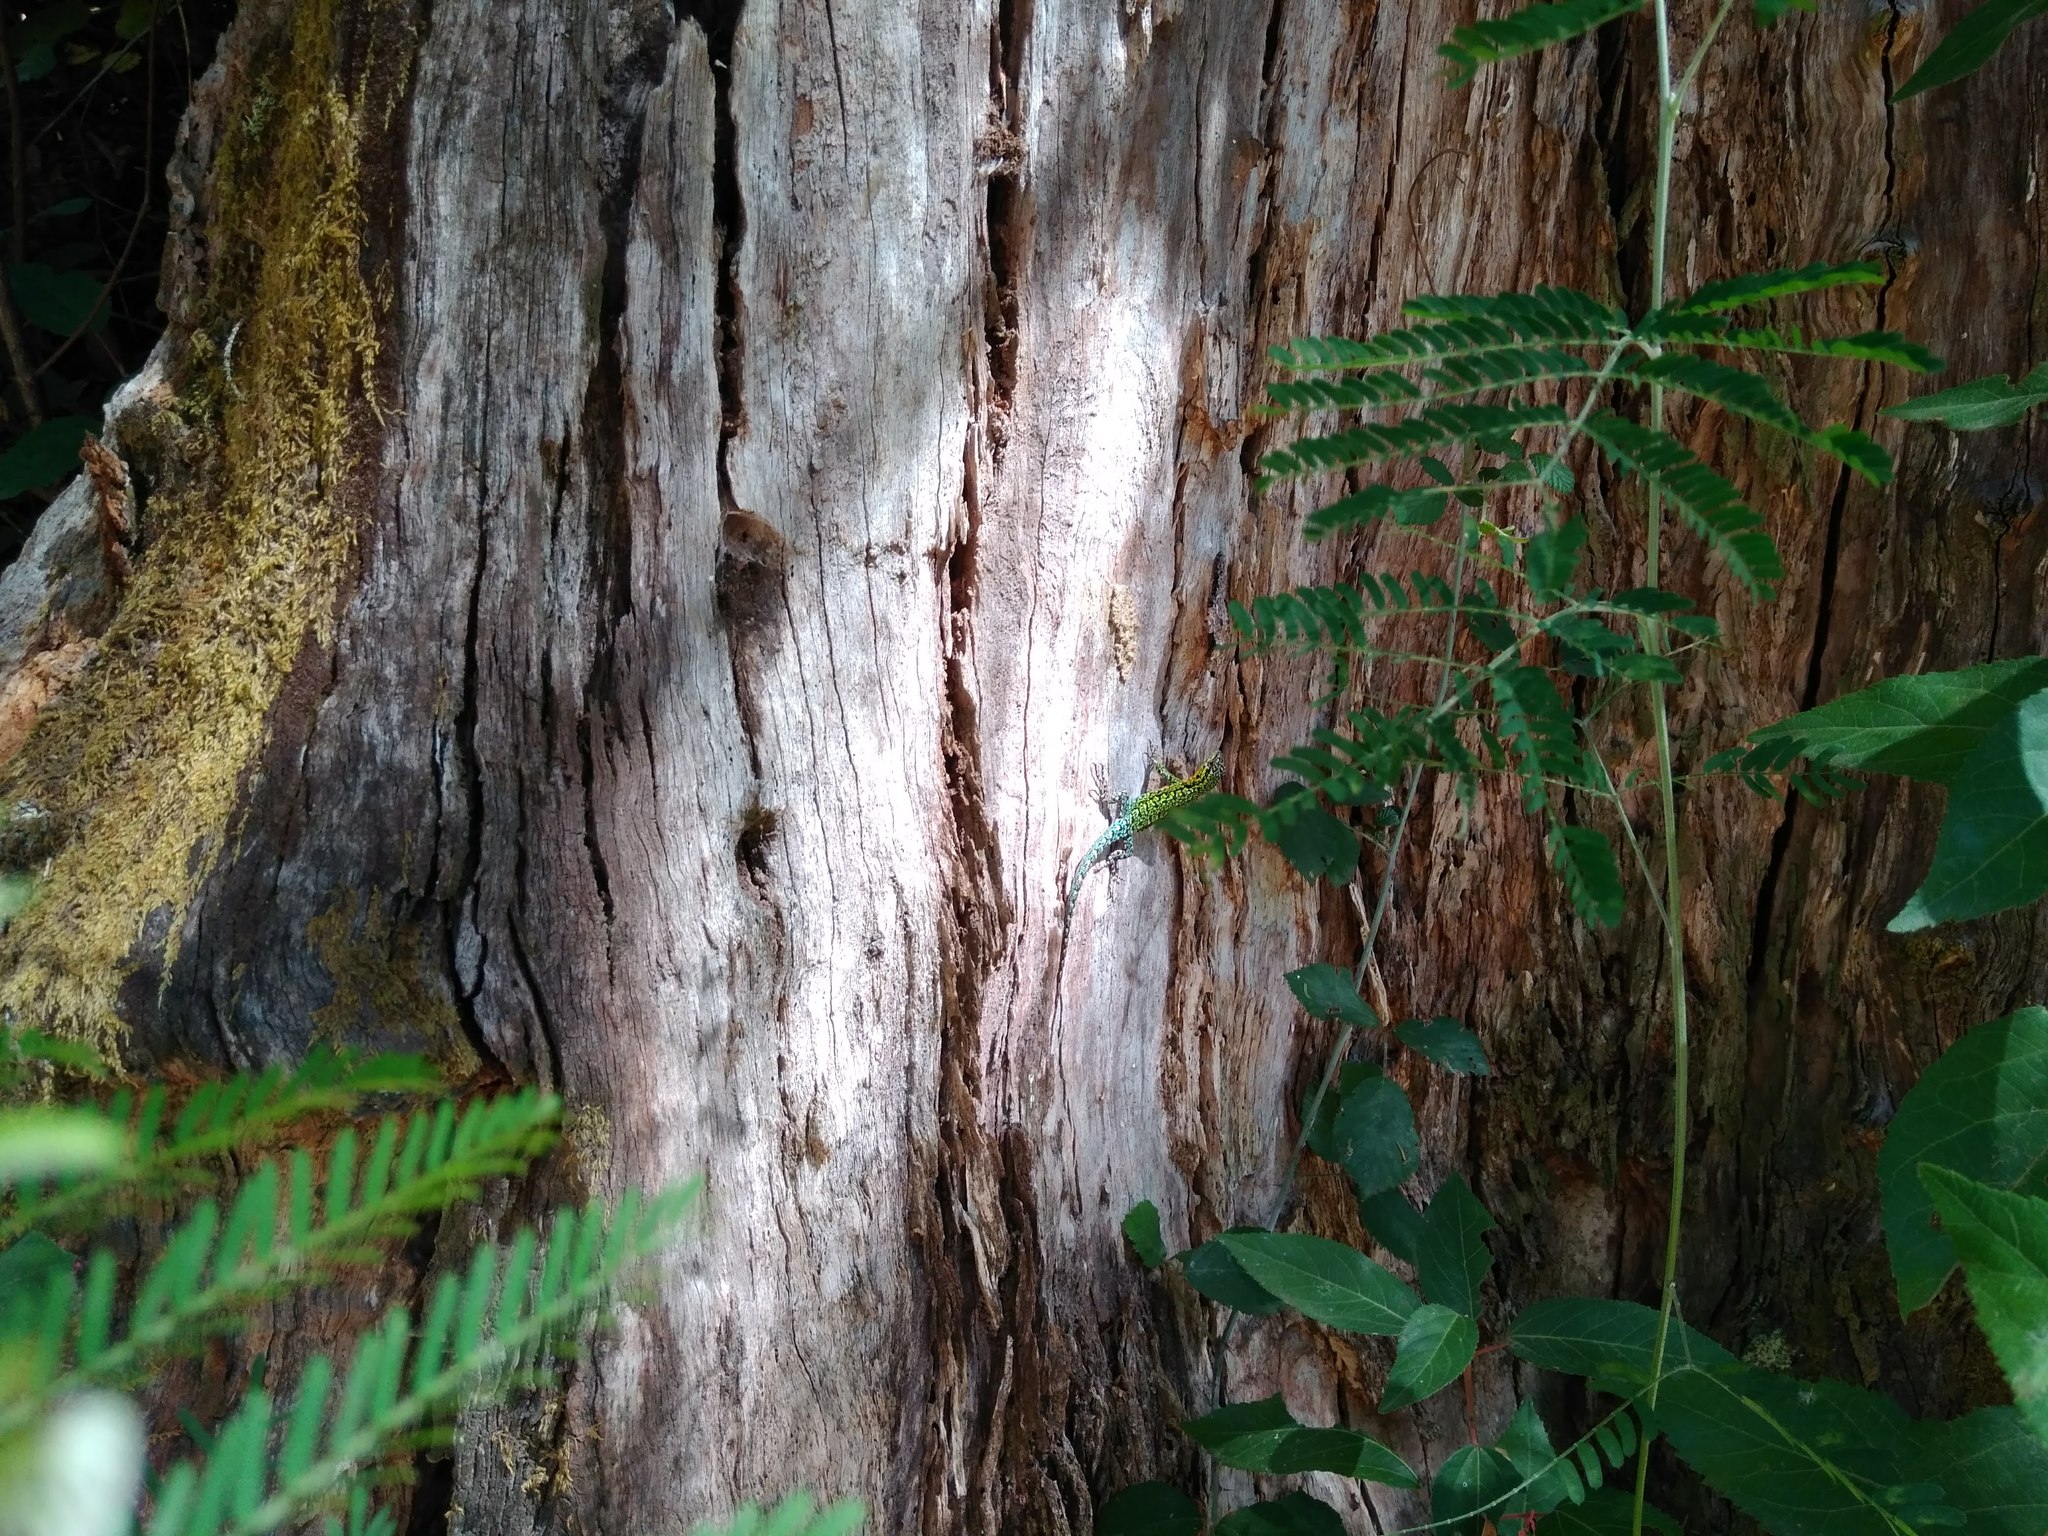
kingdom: Animalia
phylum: Chordata
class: Squamata
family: Liolaemidae
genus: Liolaemus
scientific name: Liolaemus tenuis
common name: Thin tree iguana
